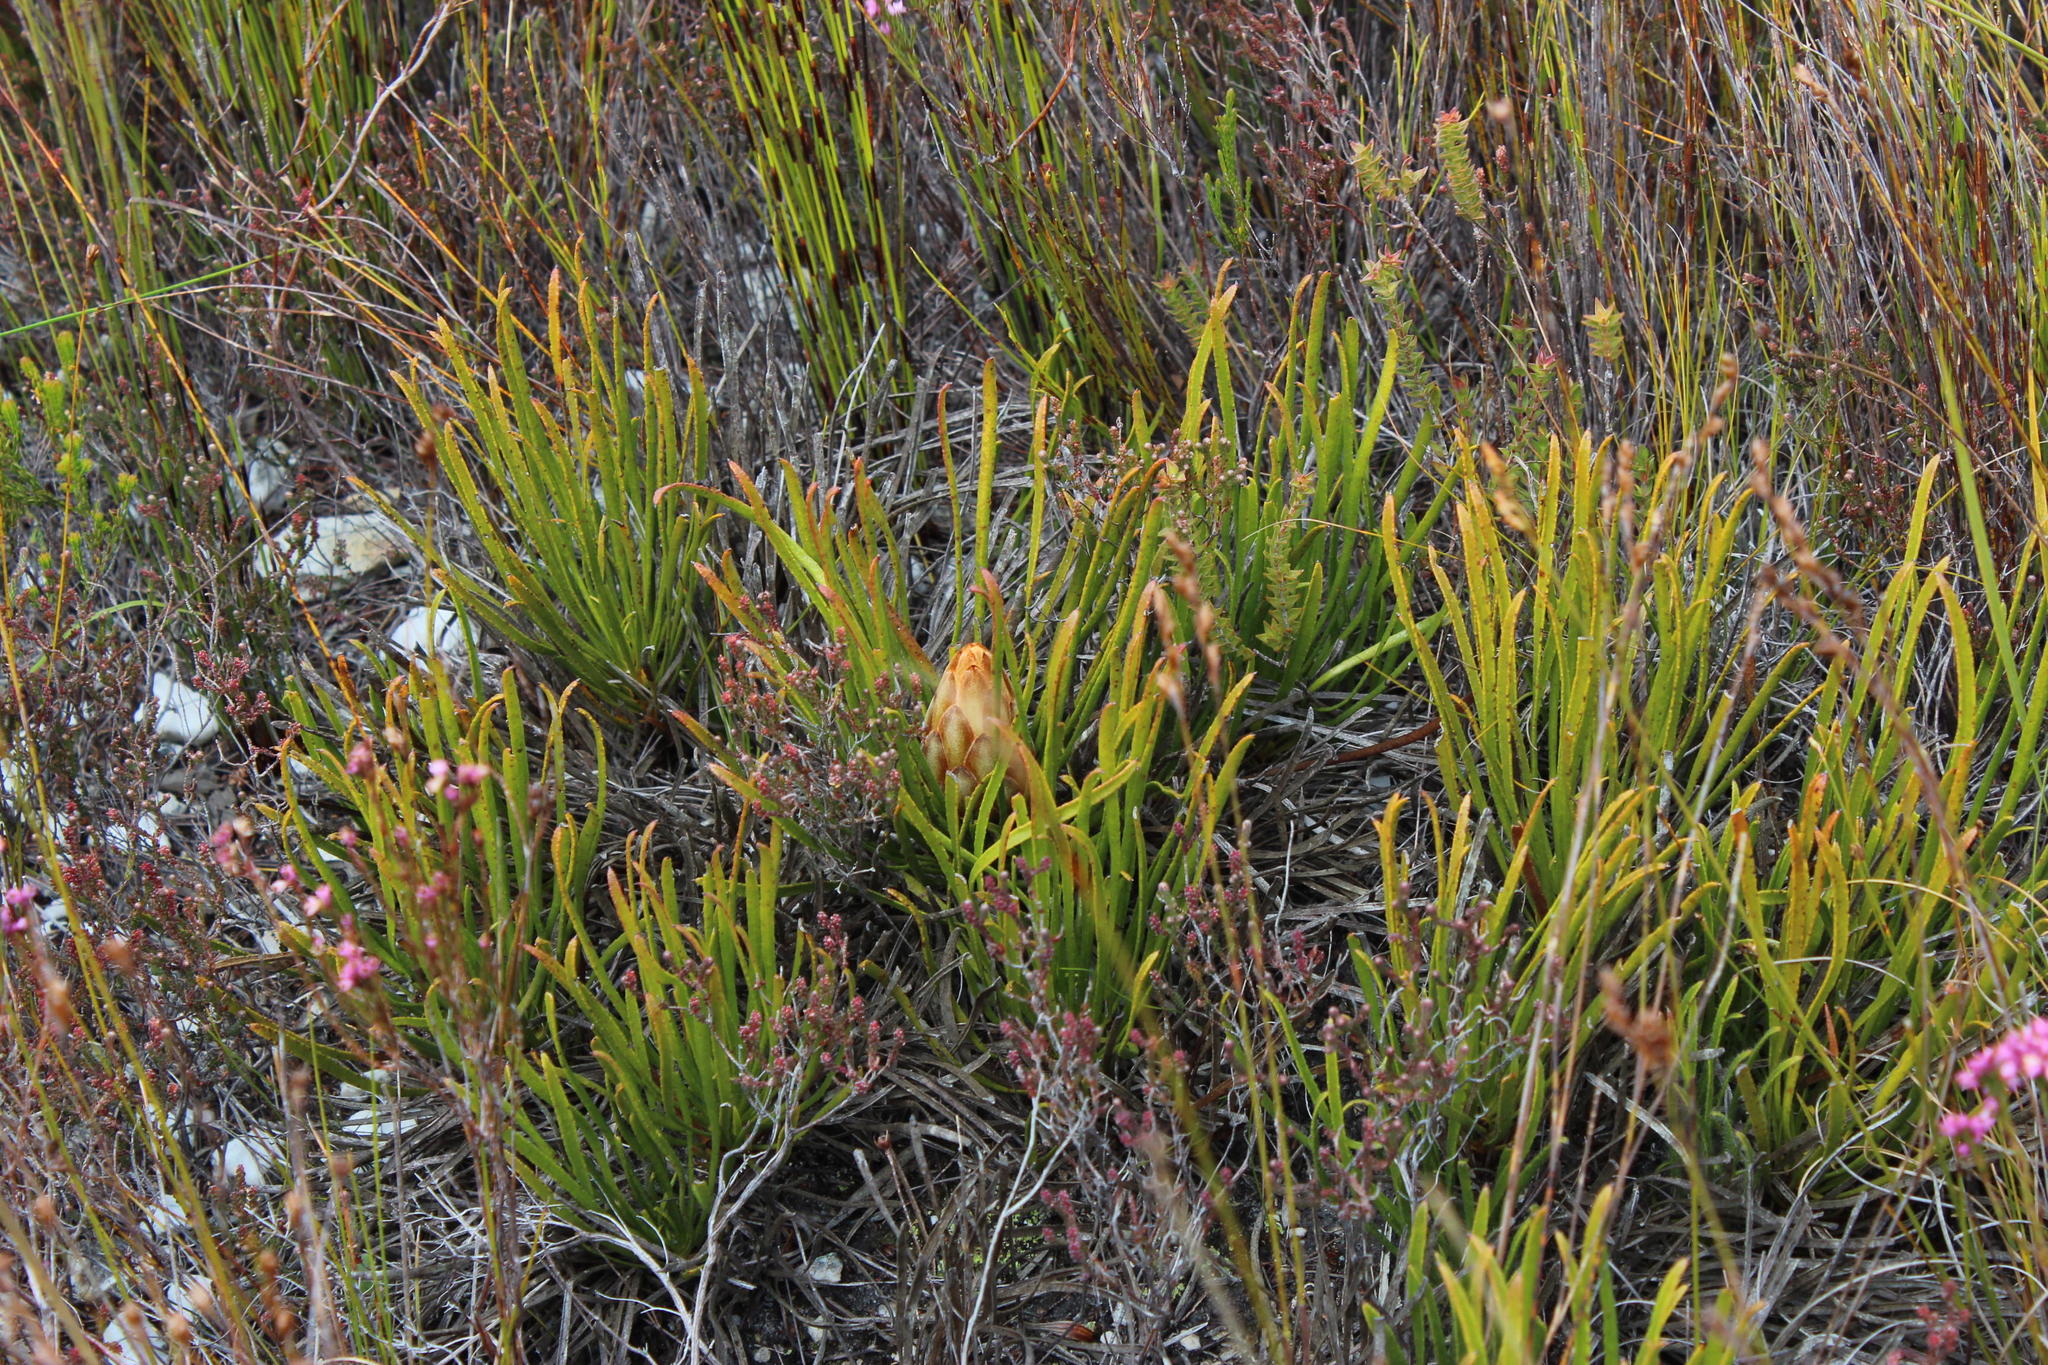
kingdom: Plantae
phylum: Tracheophyta
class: Magnoliopsida
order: Proteales
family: Proteaceae
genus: Protea
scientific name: Protea aspera
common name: Rough-leaf sugarbush
